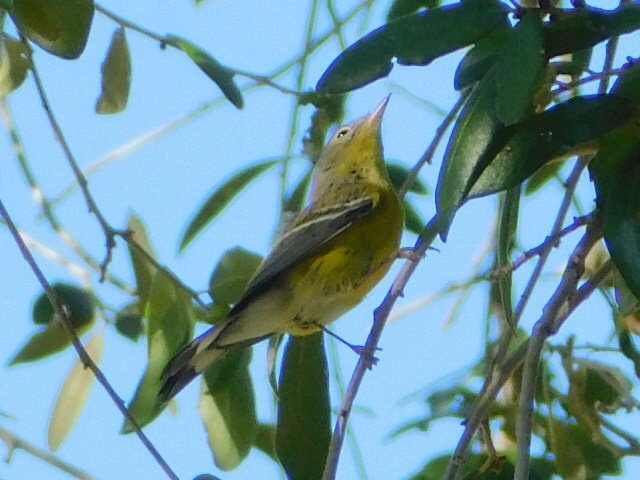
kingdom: Animalia
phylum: Chordata
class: Aves
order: Passeriformes
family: Parulidae
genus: Setophaga
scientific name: Setophaga magnolia
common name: Magnolia warbler
